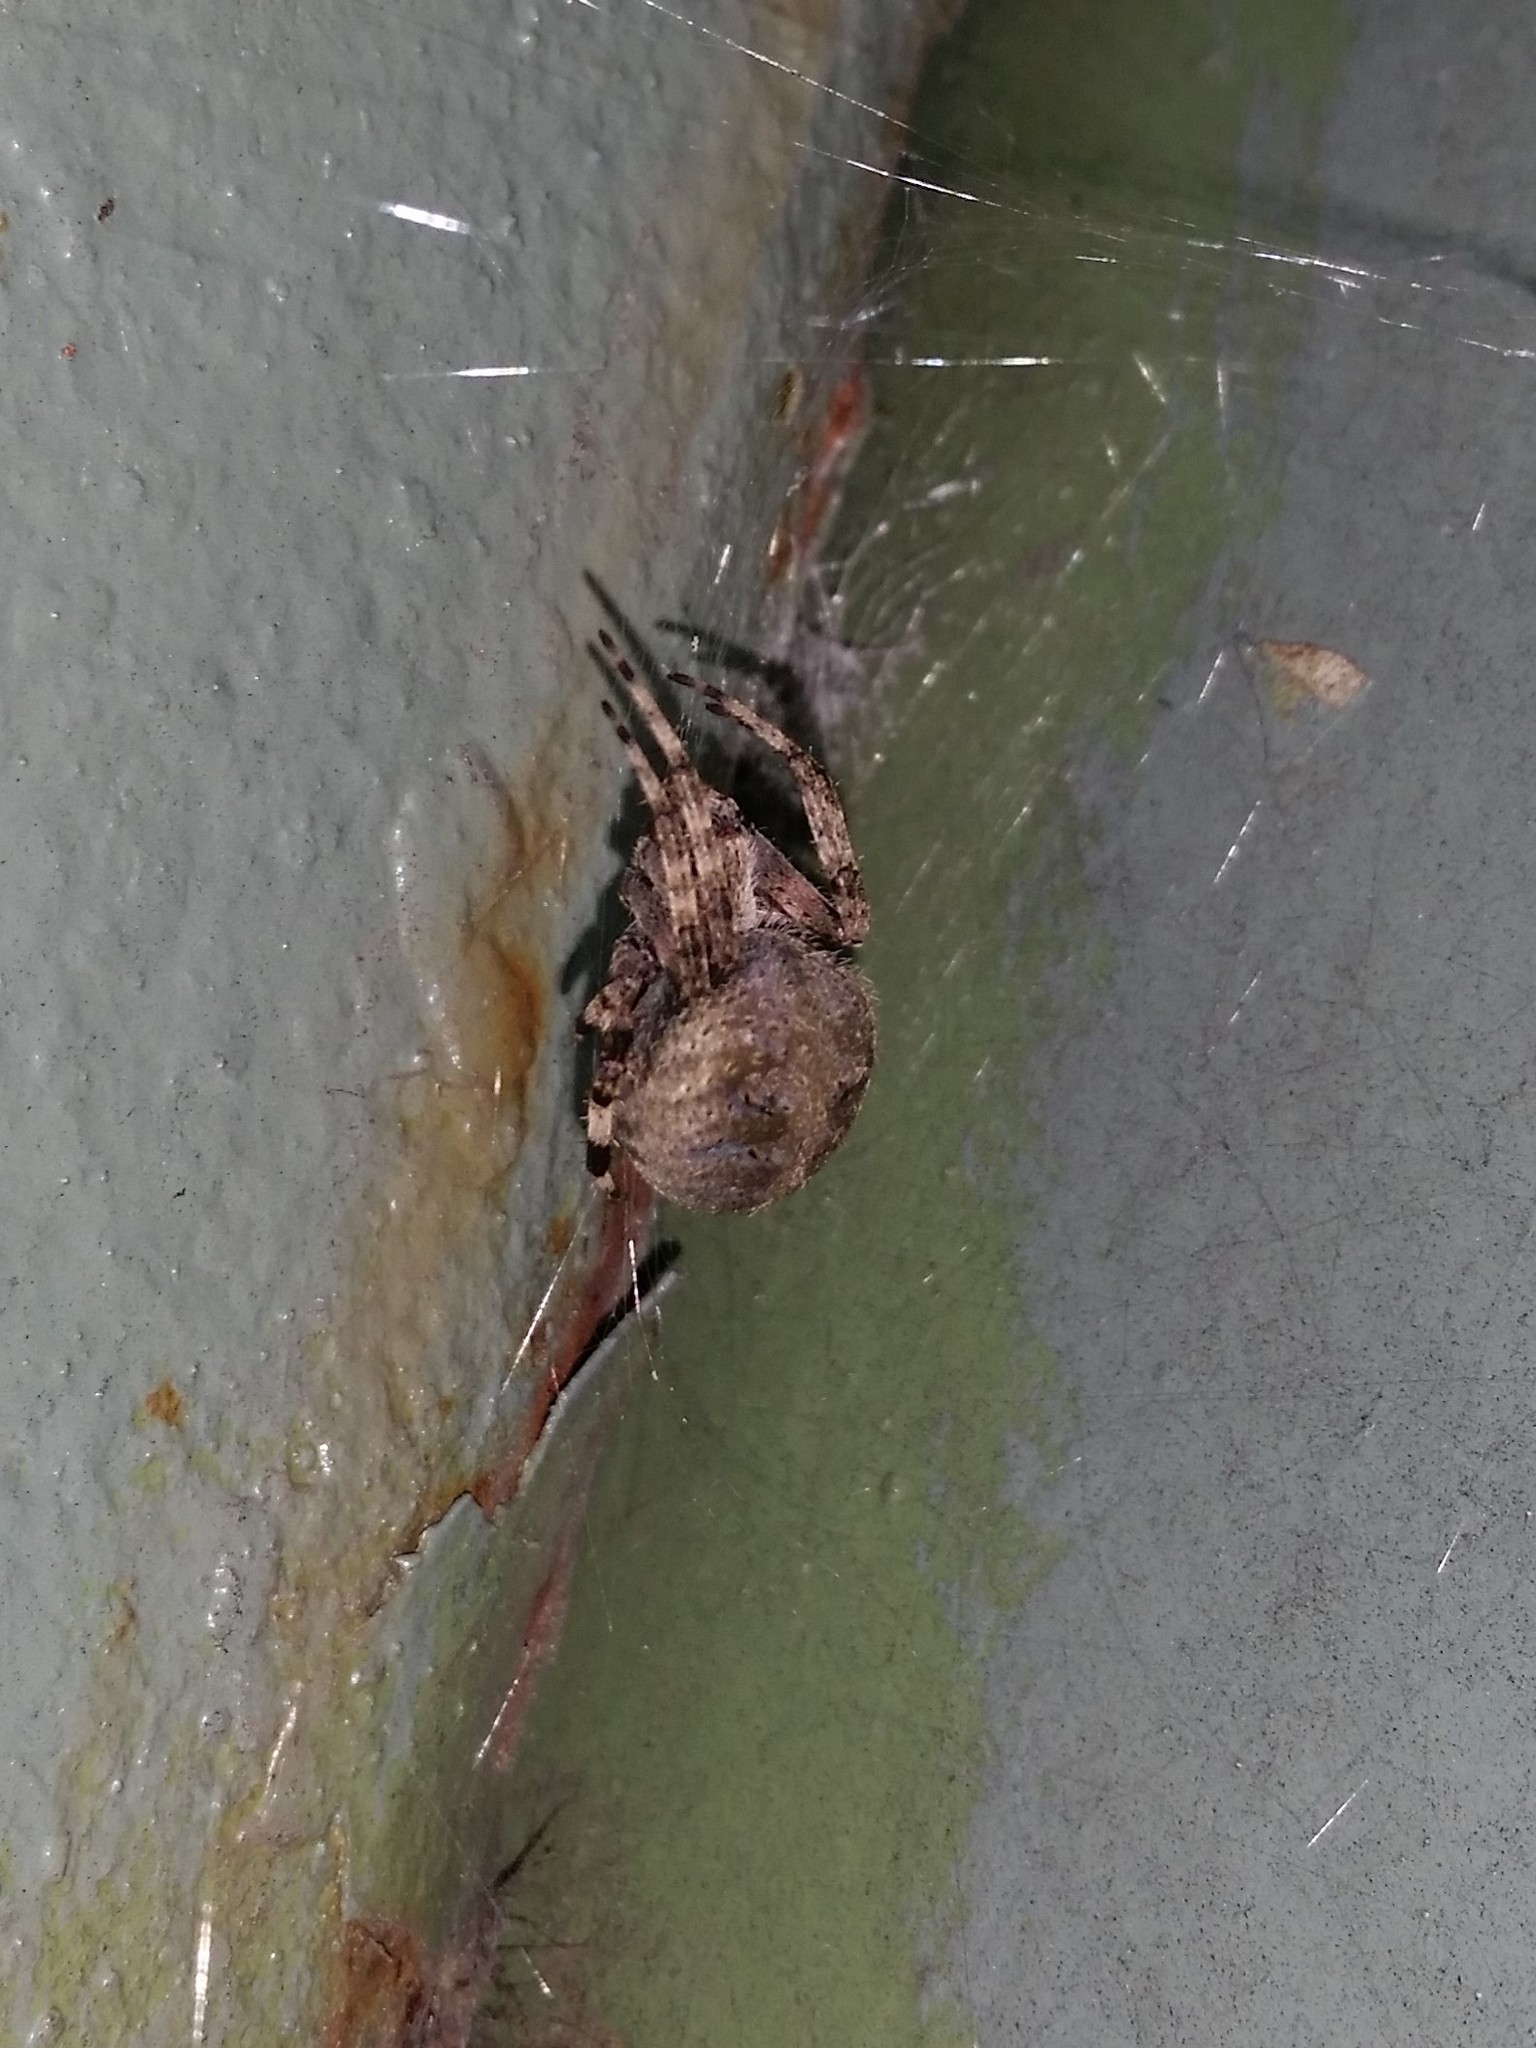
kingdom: Animalia
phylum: Arthropoda
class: Arachnida
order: Araneae
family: Araneidae
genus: Neoscona
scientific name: Neoscona crucifera
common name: Spotted orbweaver
